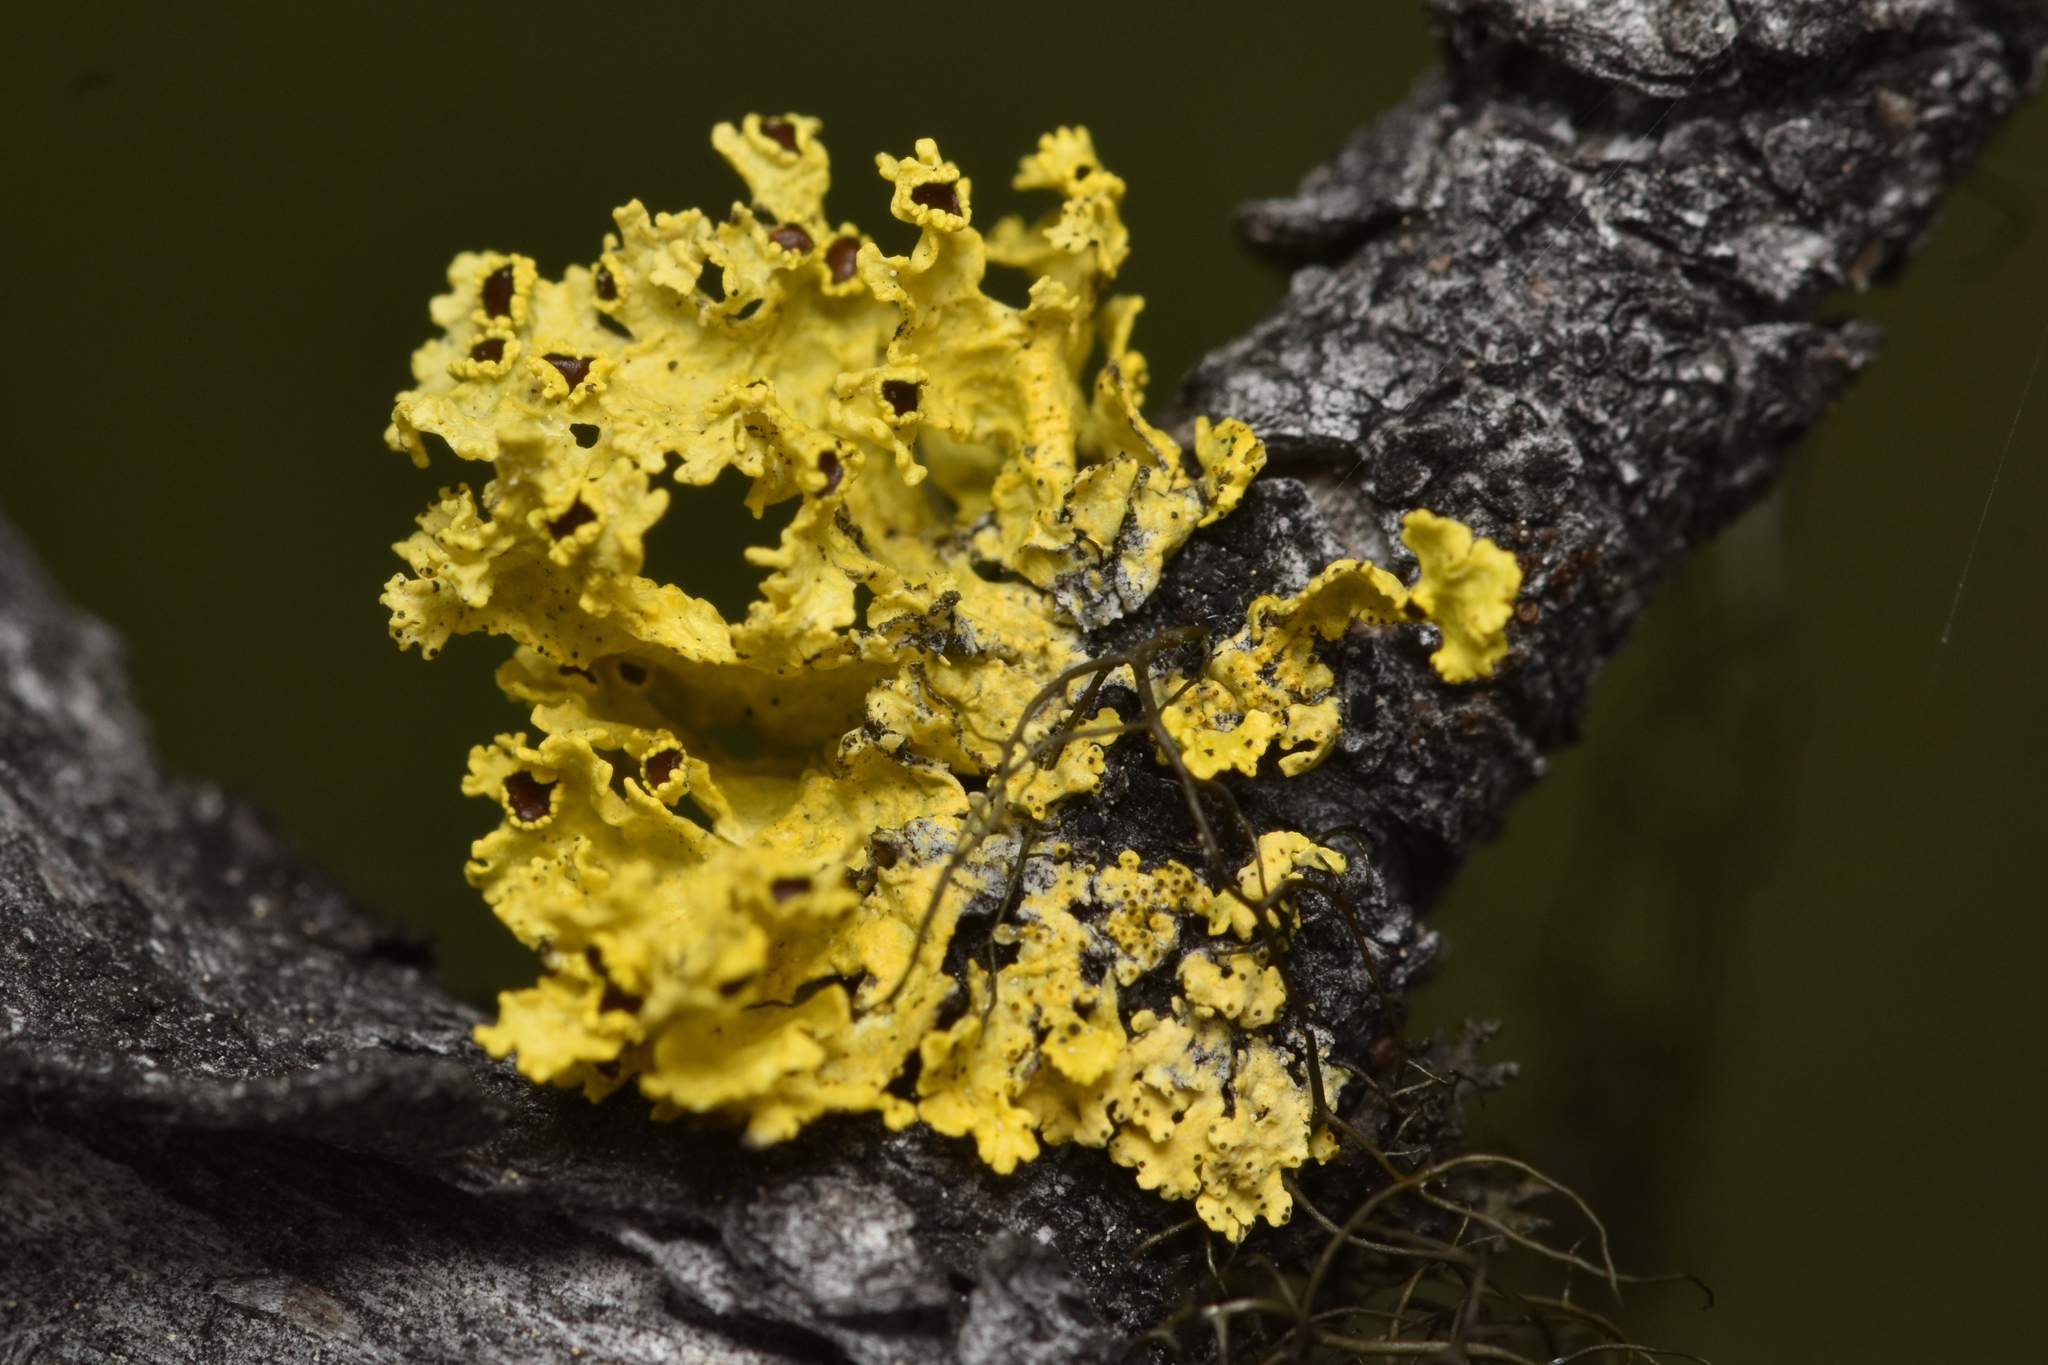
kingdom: Fungi
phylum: Ascomycota
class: Lecanoromycetes
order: Lecanorales
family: Parmeliaceae
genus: Vulpicida
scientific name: Vulpicida canadensis
